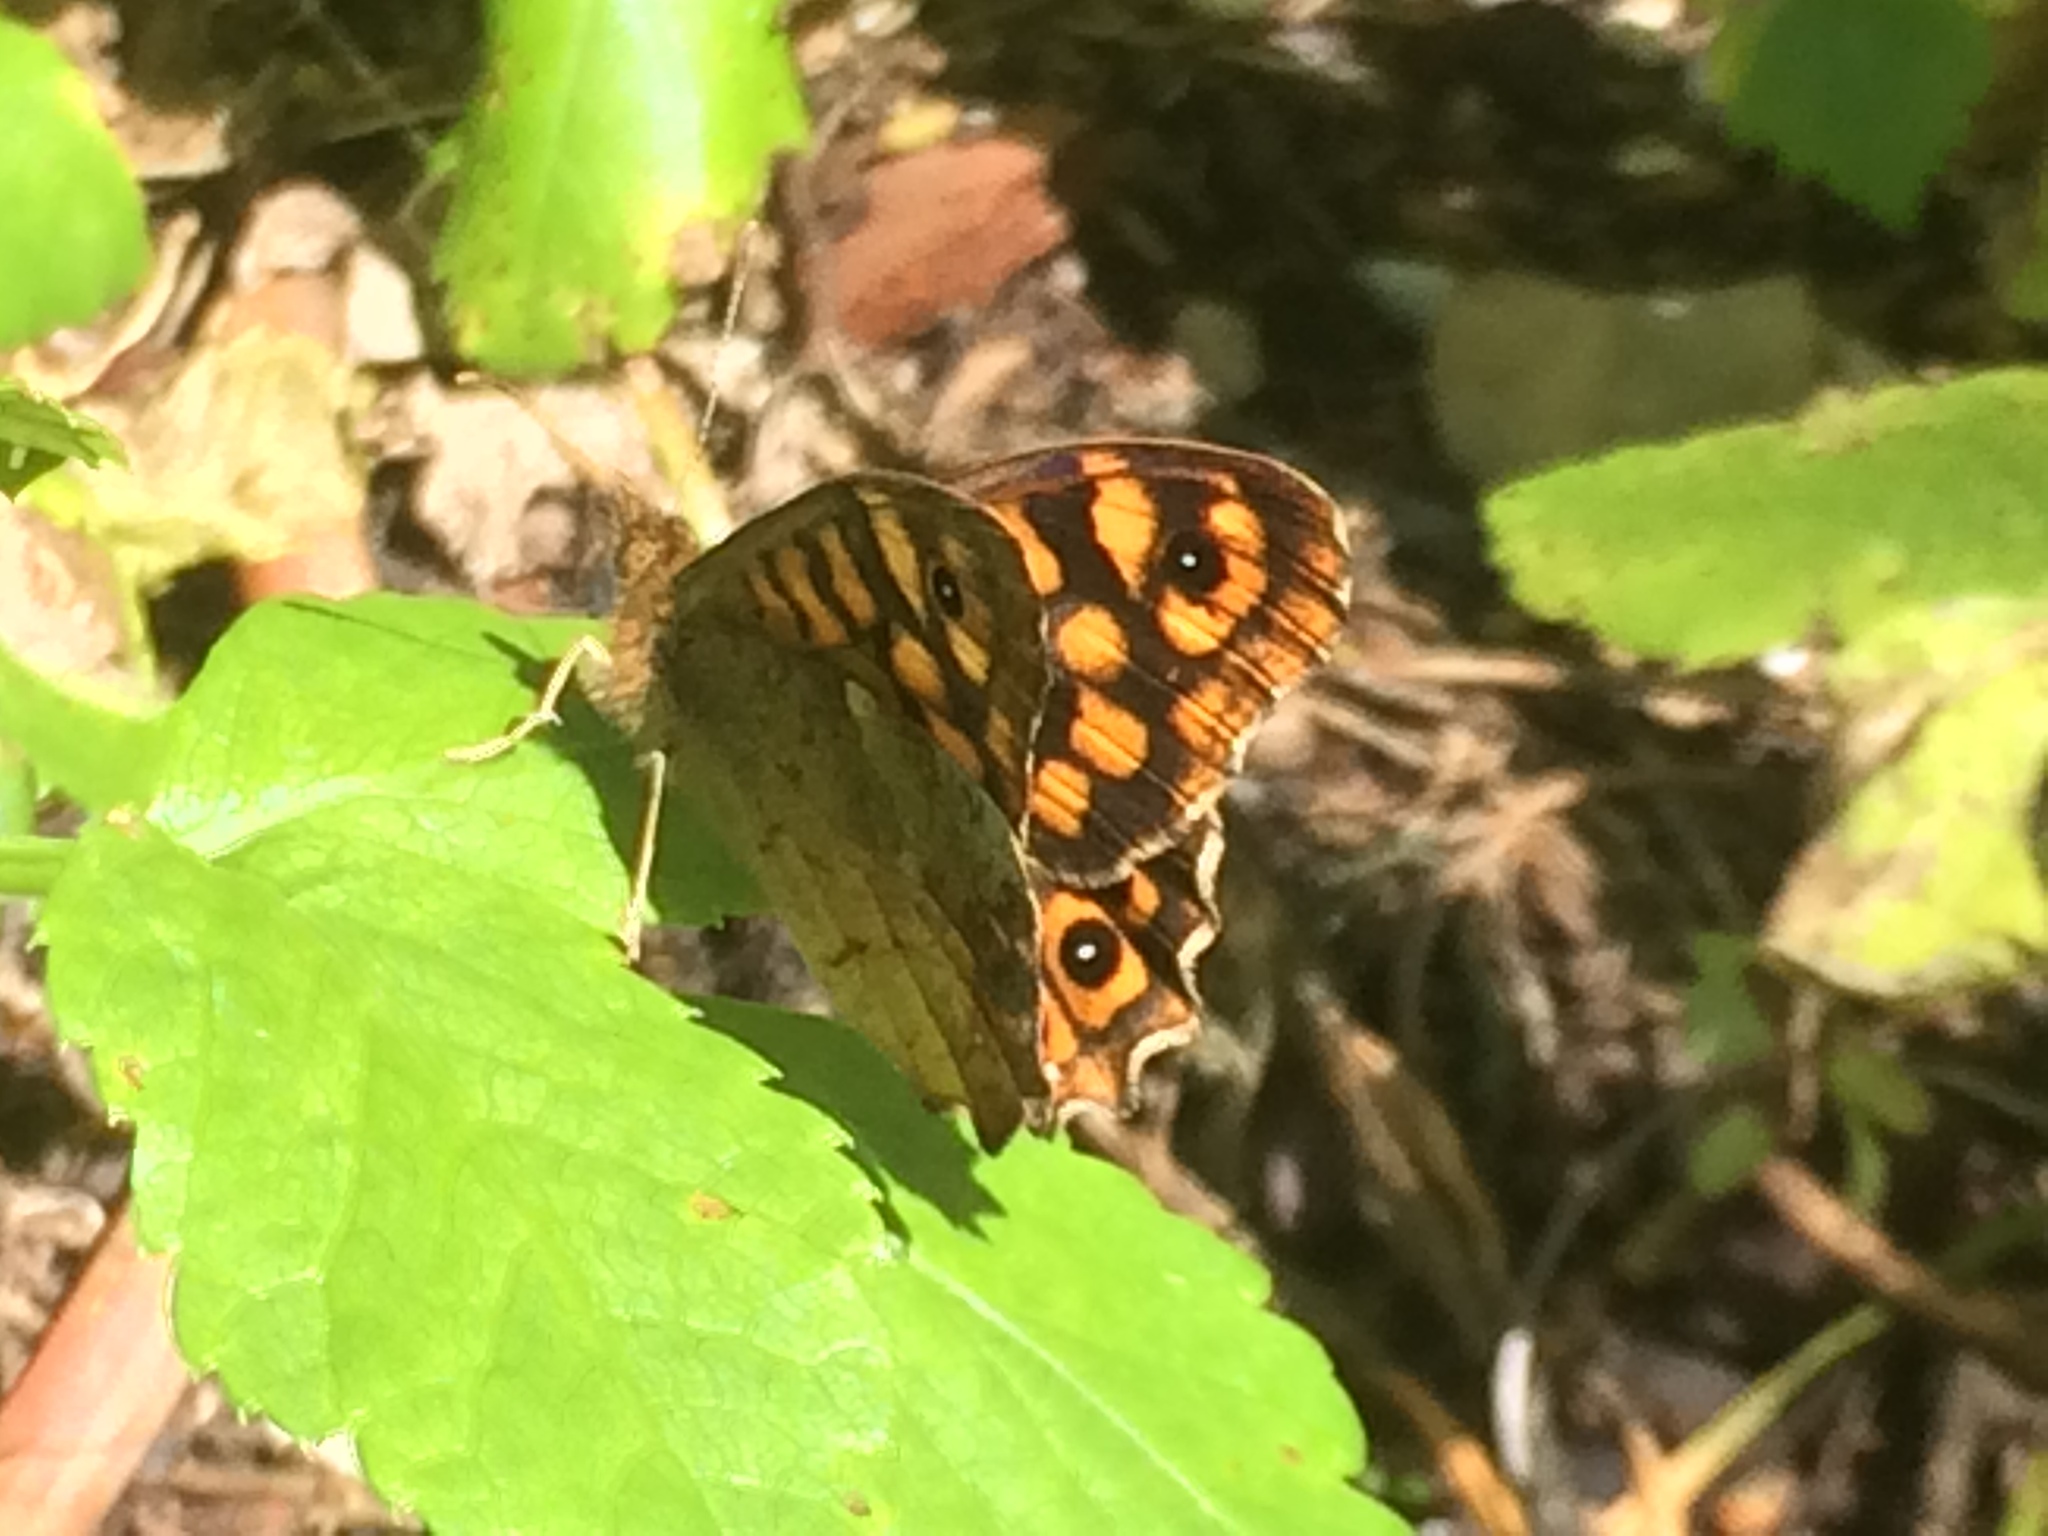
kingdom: Animalia
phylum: Arthropoda
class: Insecta
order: Lepidoptera
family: Nymphalidae
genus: Pararge
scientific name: Pararge aegeria
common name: Speckled wood
